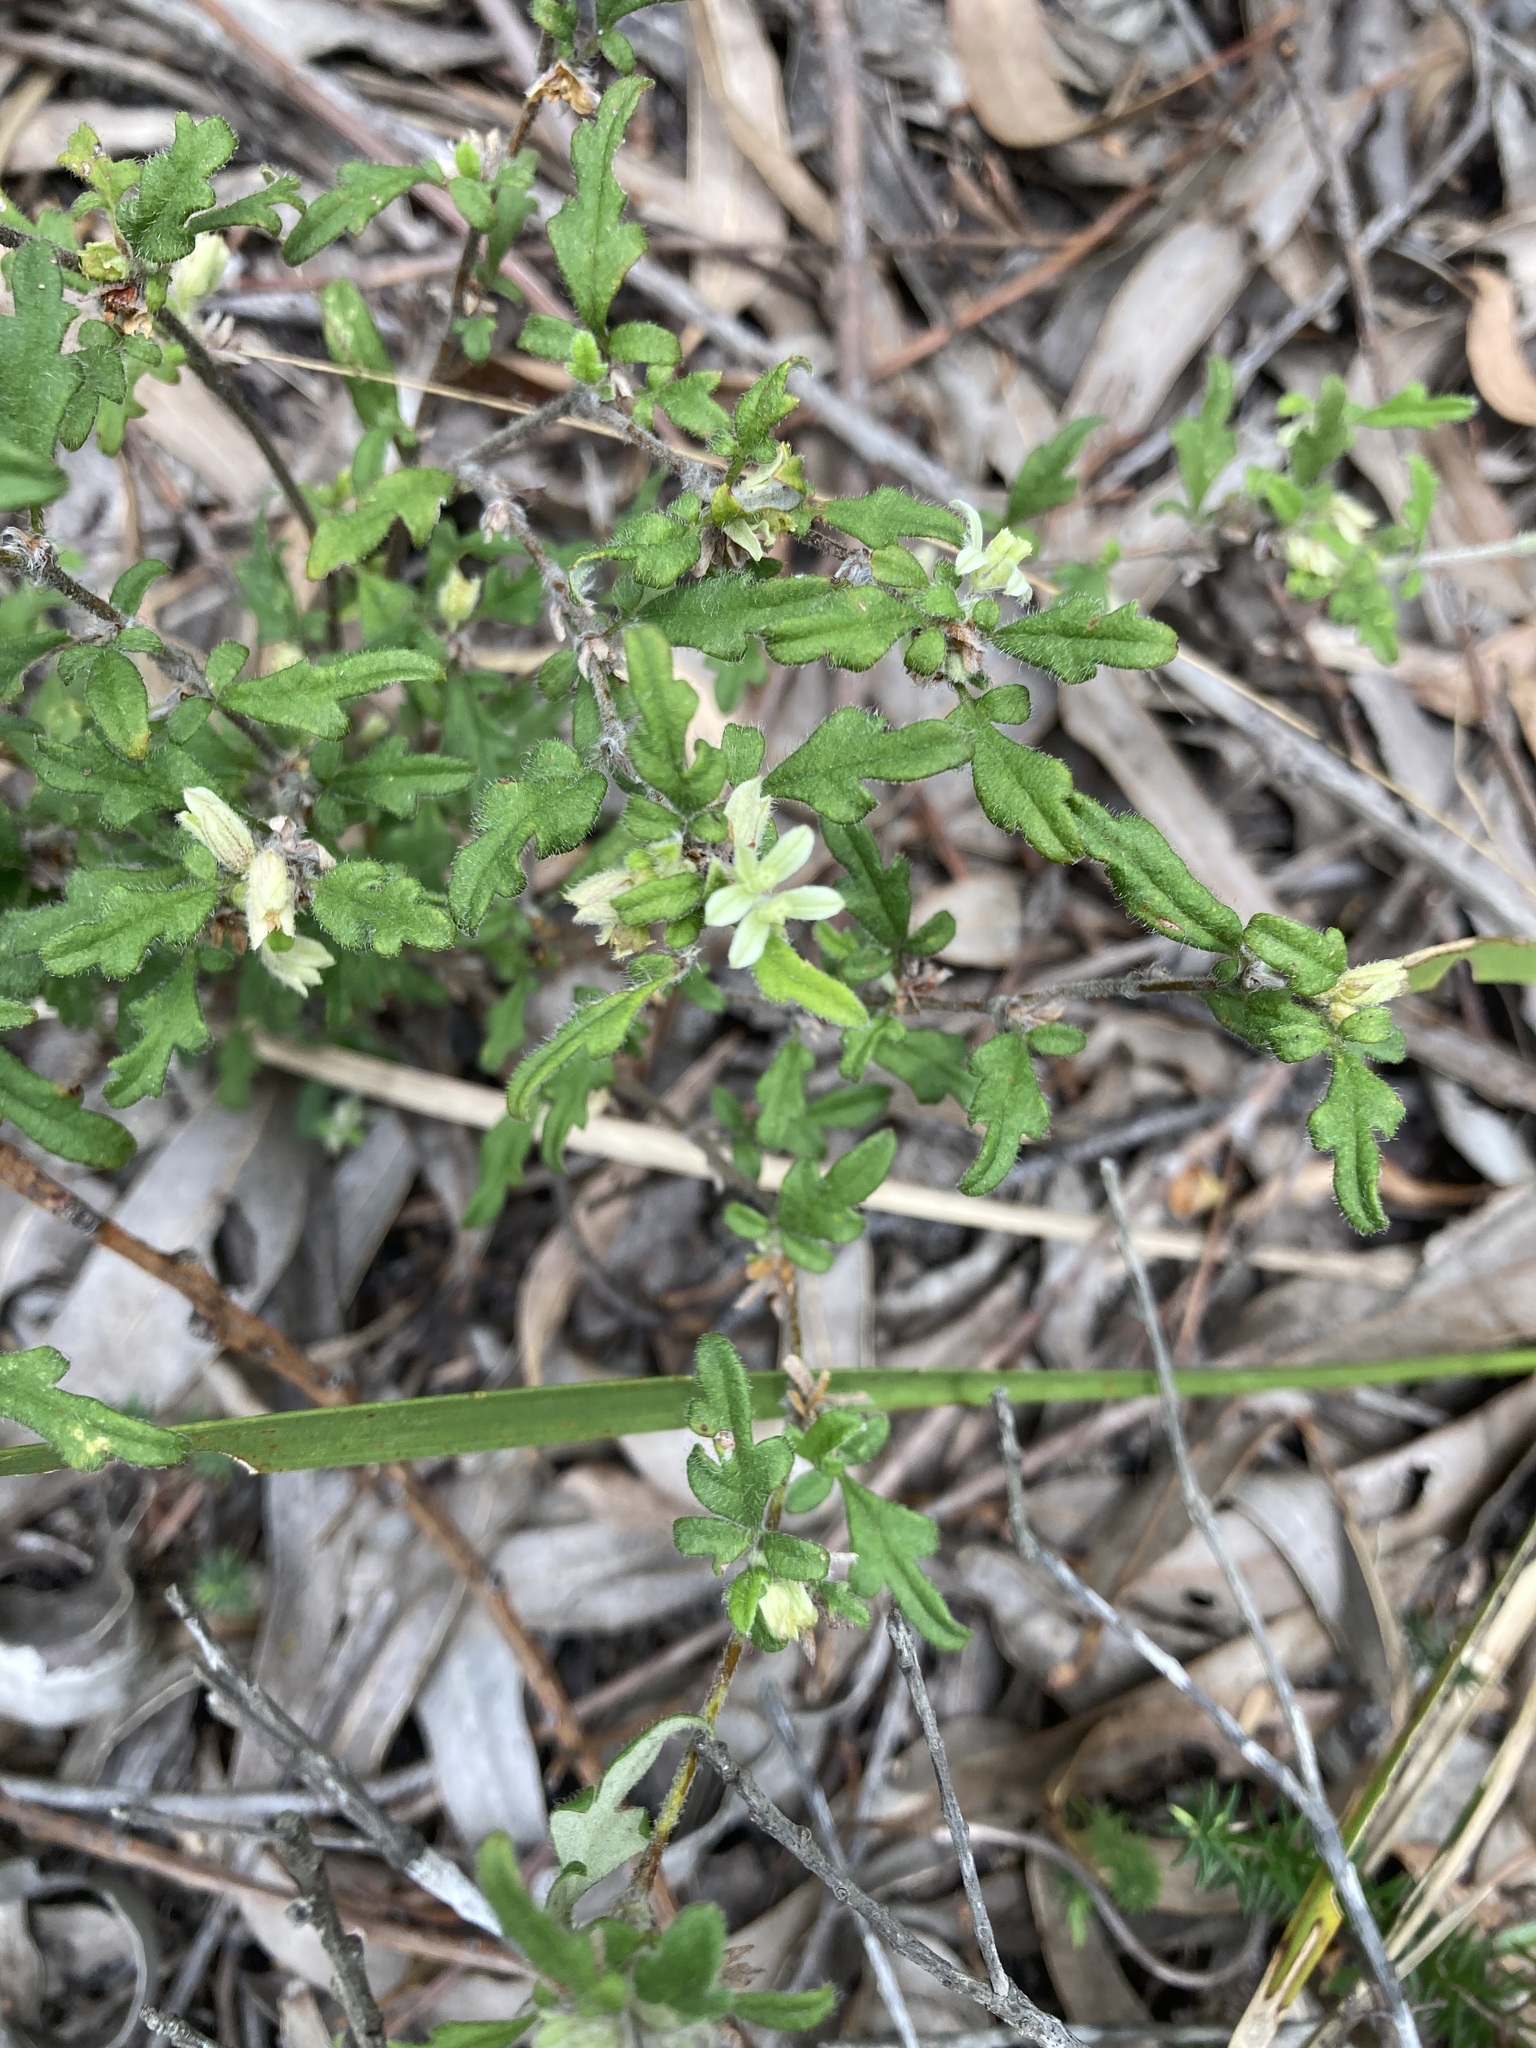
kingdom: Plantae
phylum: Tracheophyta
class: Magnoliopsida
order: Apiales
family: Apiaceae
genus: Xanthosia
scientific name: Xanthosia pilosa
